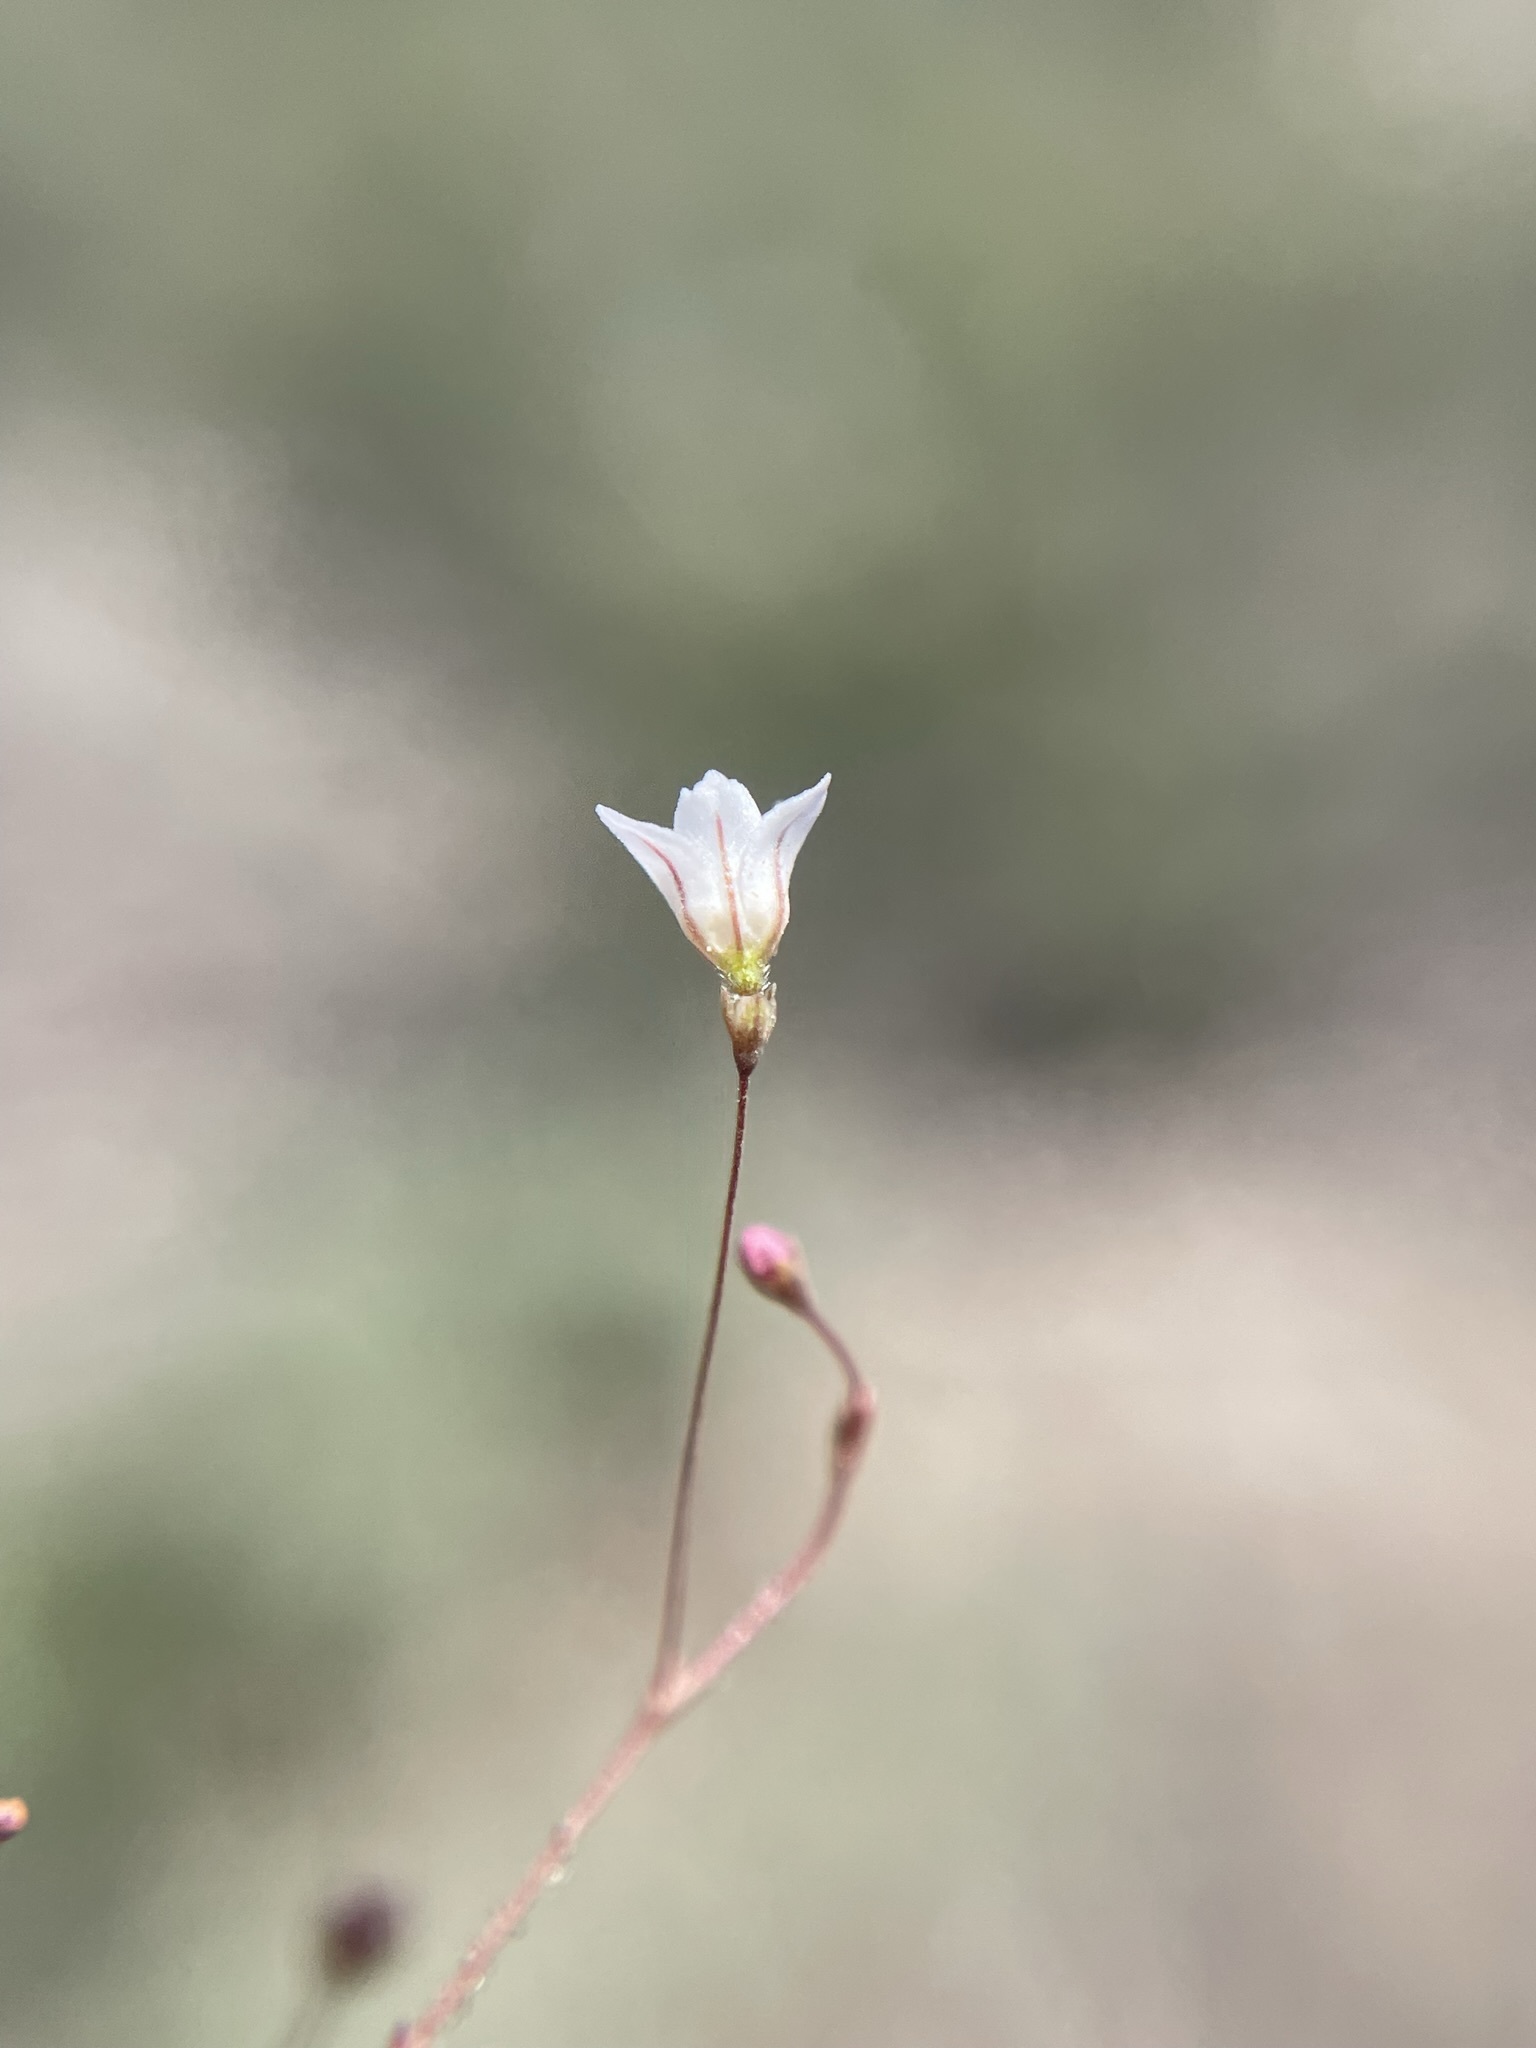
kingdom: Plantae
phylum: Tracheophyta
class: Magnoliopsida
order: Caryophyllales
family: Polygonaceae
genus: Eriogonum
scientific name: Eriogonum spergulinum
